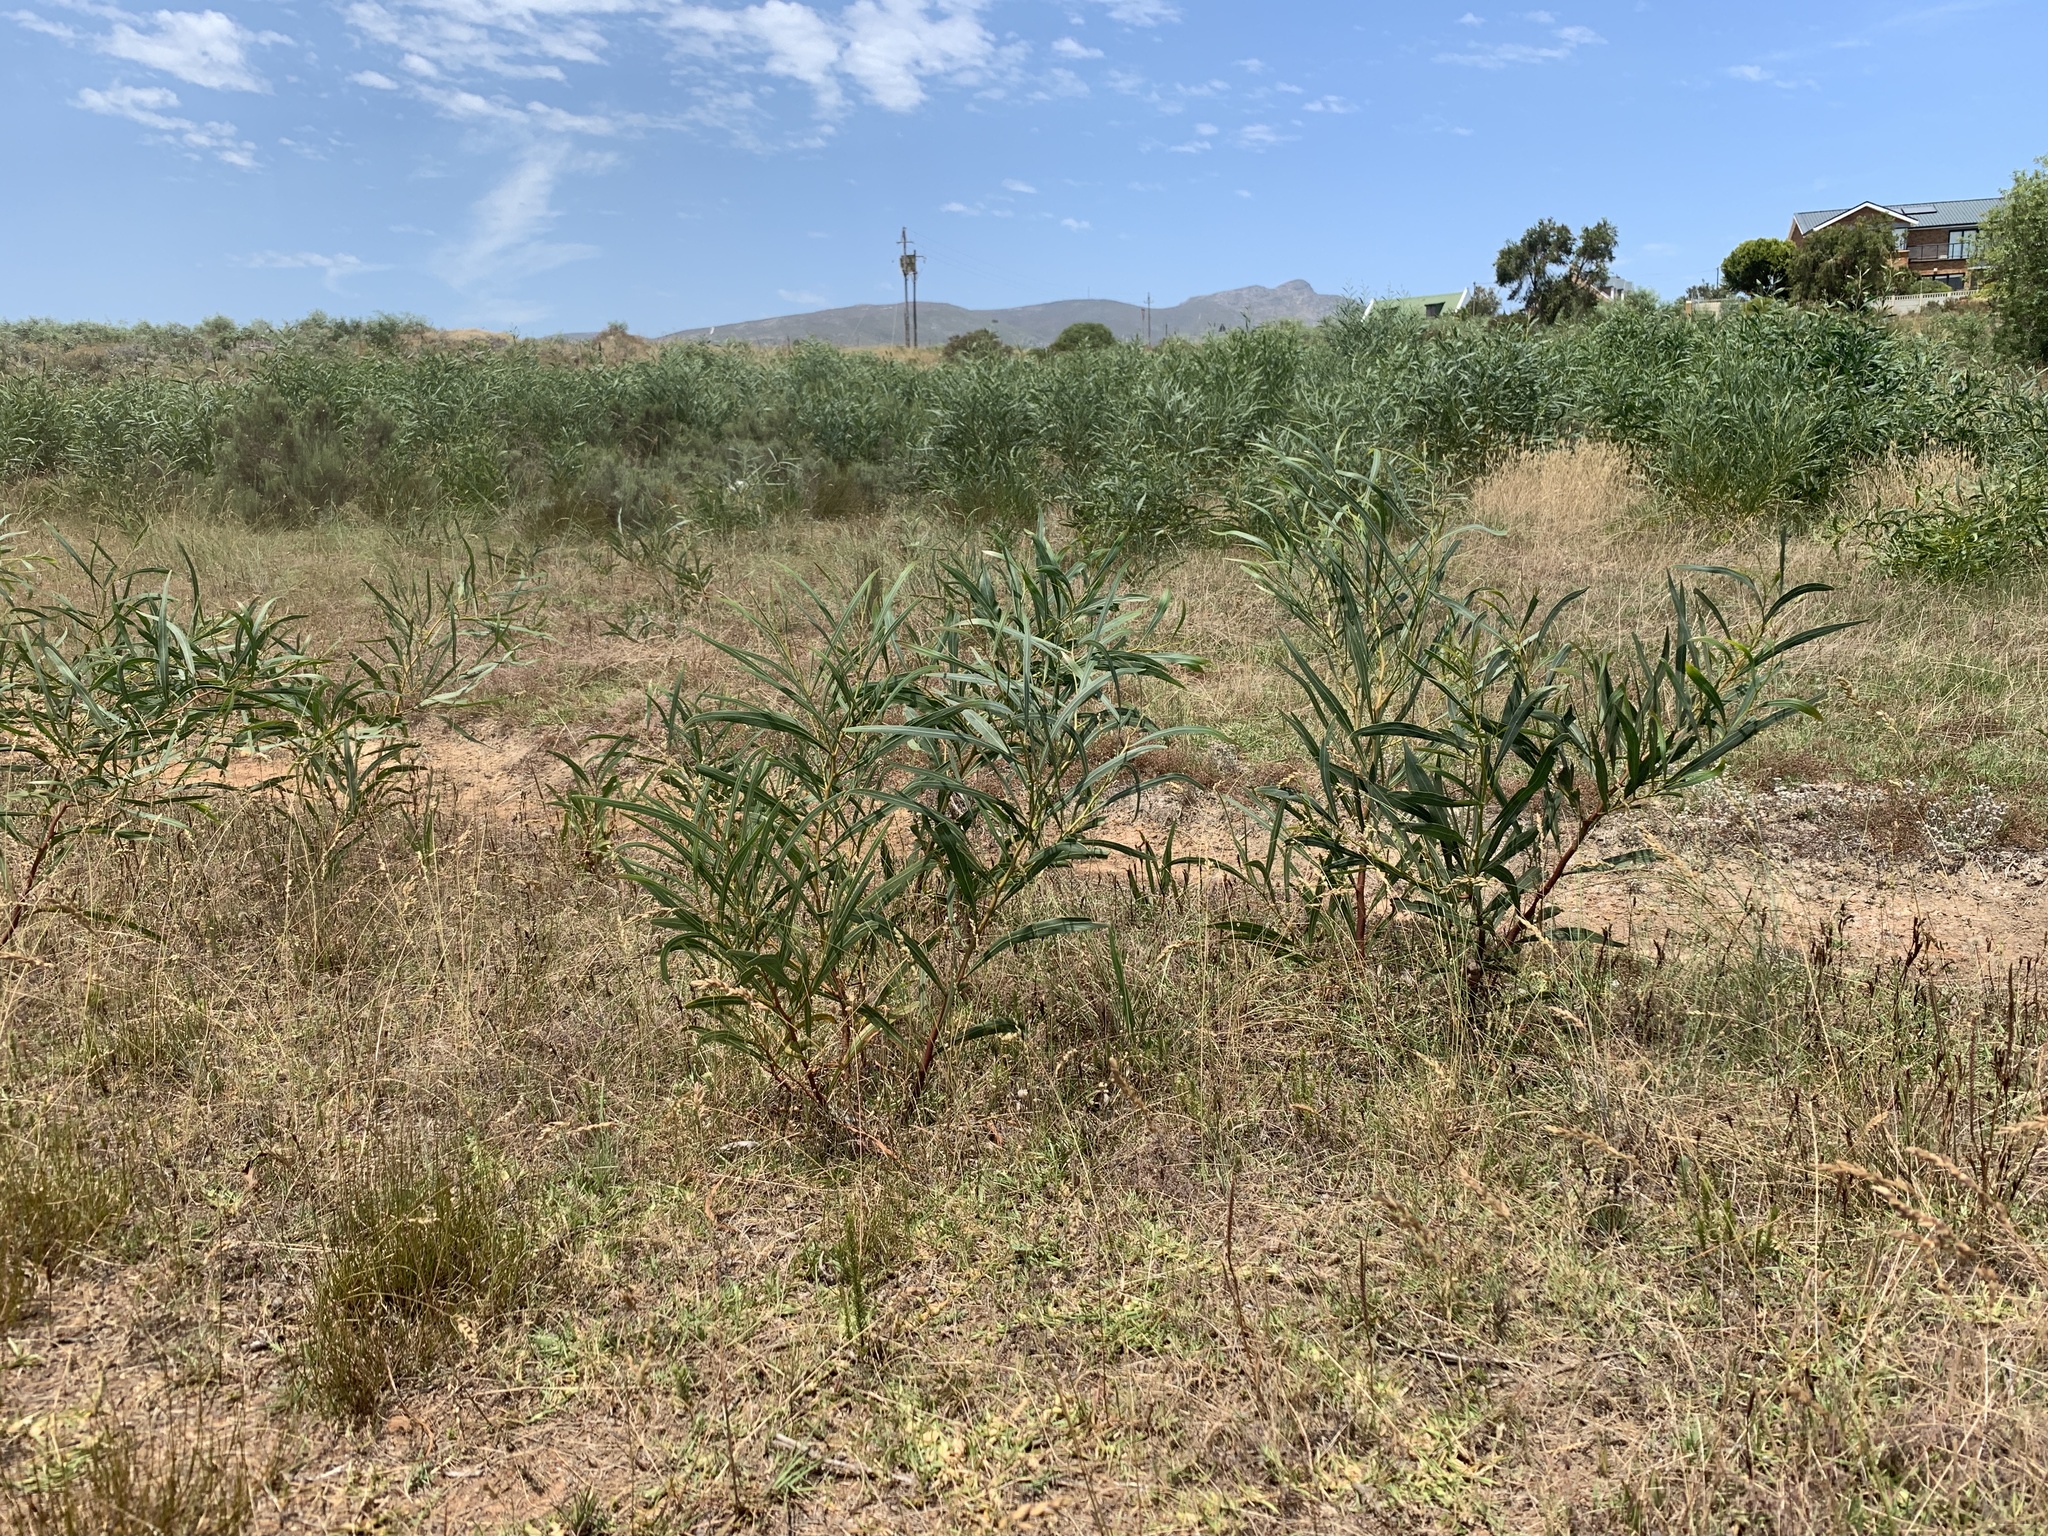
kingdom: Plantae
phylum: Tracheophyta
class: Magnoliopsida
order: Fabales
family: Fabaceae
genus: Acacia
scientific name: Acacia saligna
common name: Orange wattle
